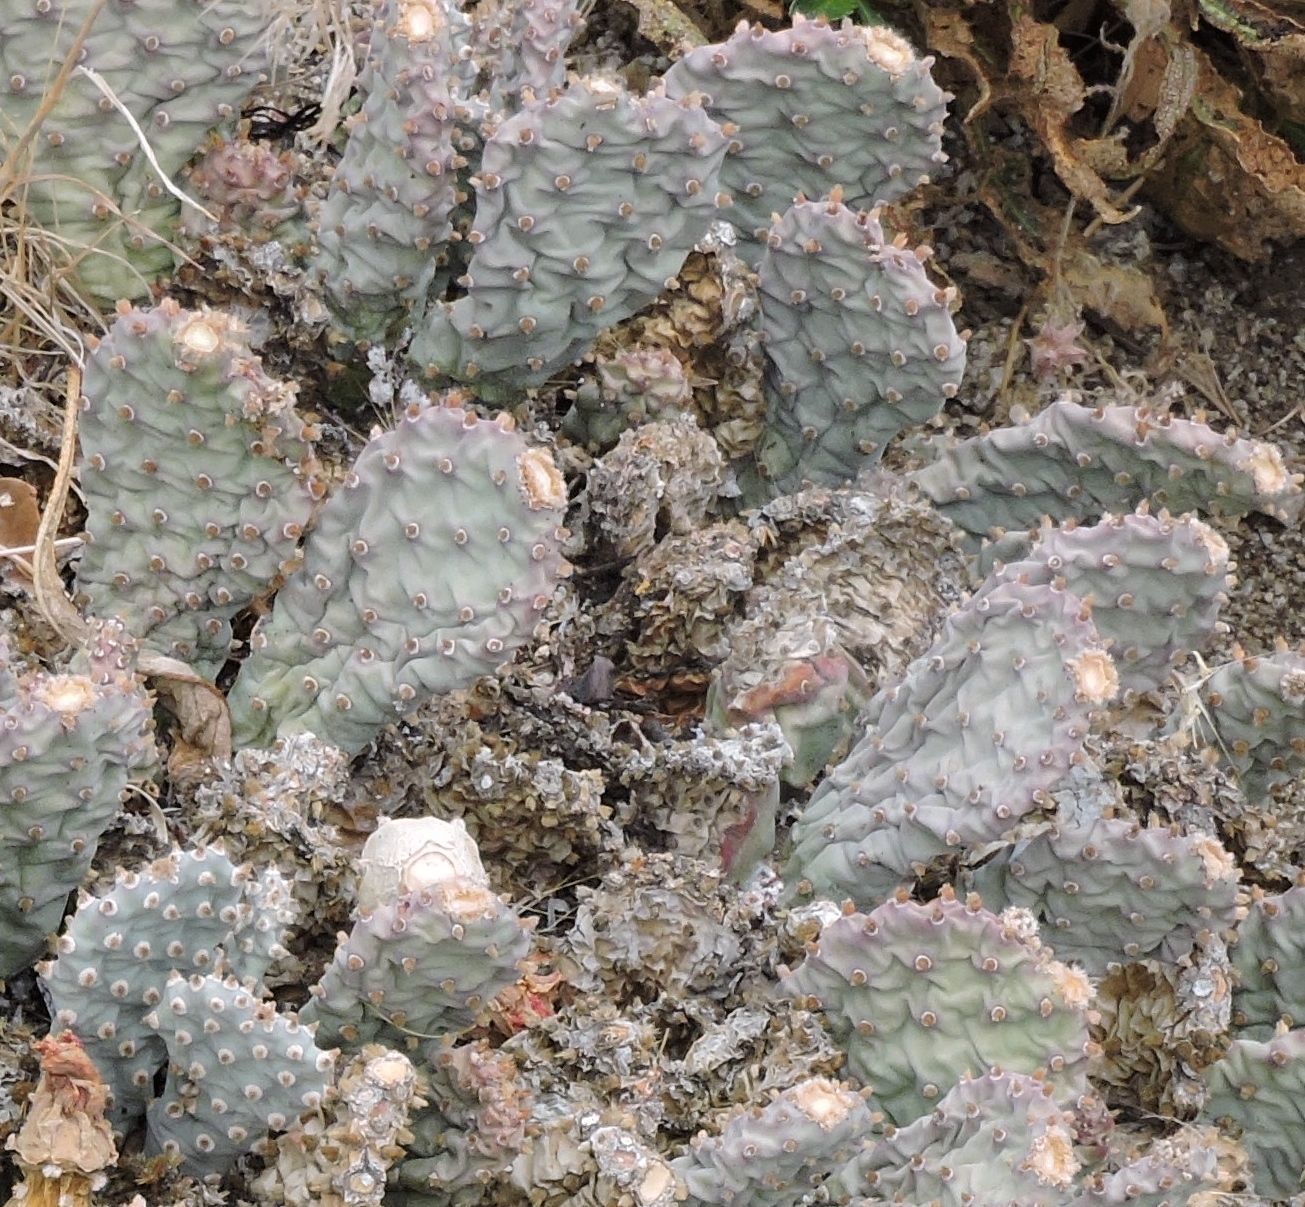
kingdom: Plantae
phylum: Tracheophyta
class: Magnoliopsida
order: Caryophyllales
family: Cactaceae
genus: Opuntia
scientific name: Opuntia basilaris
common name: Beavertail prickly-pear
